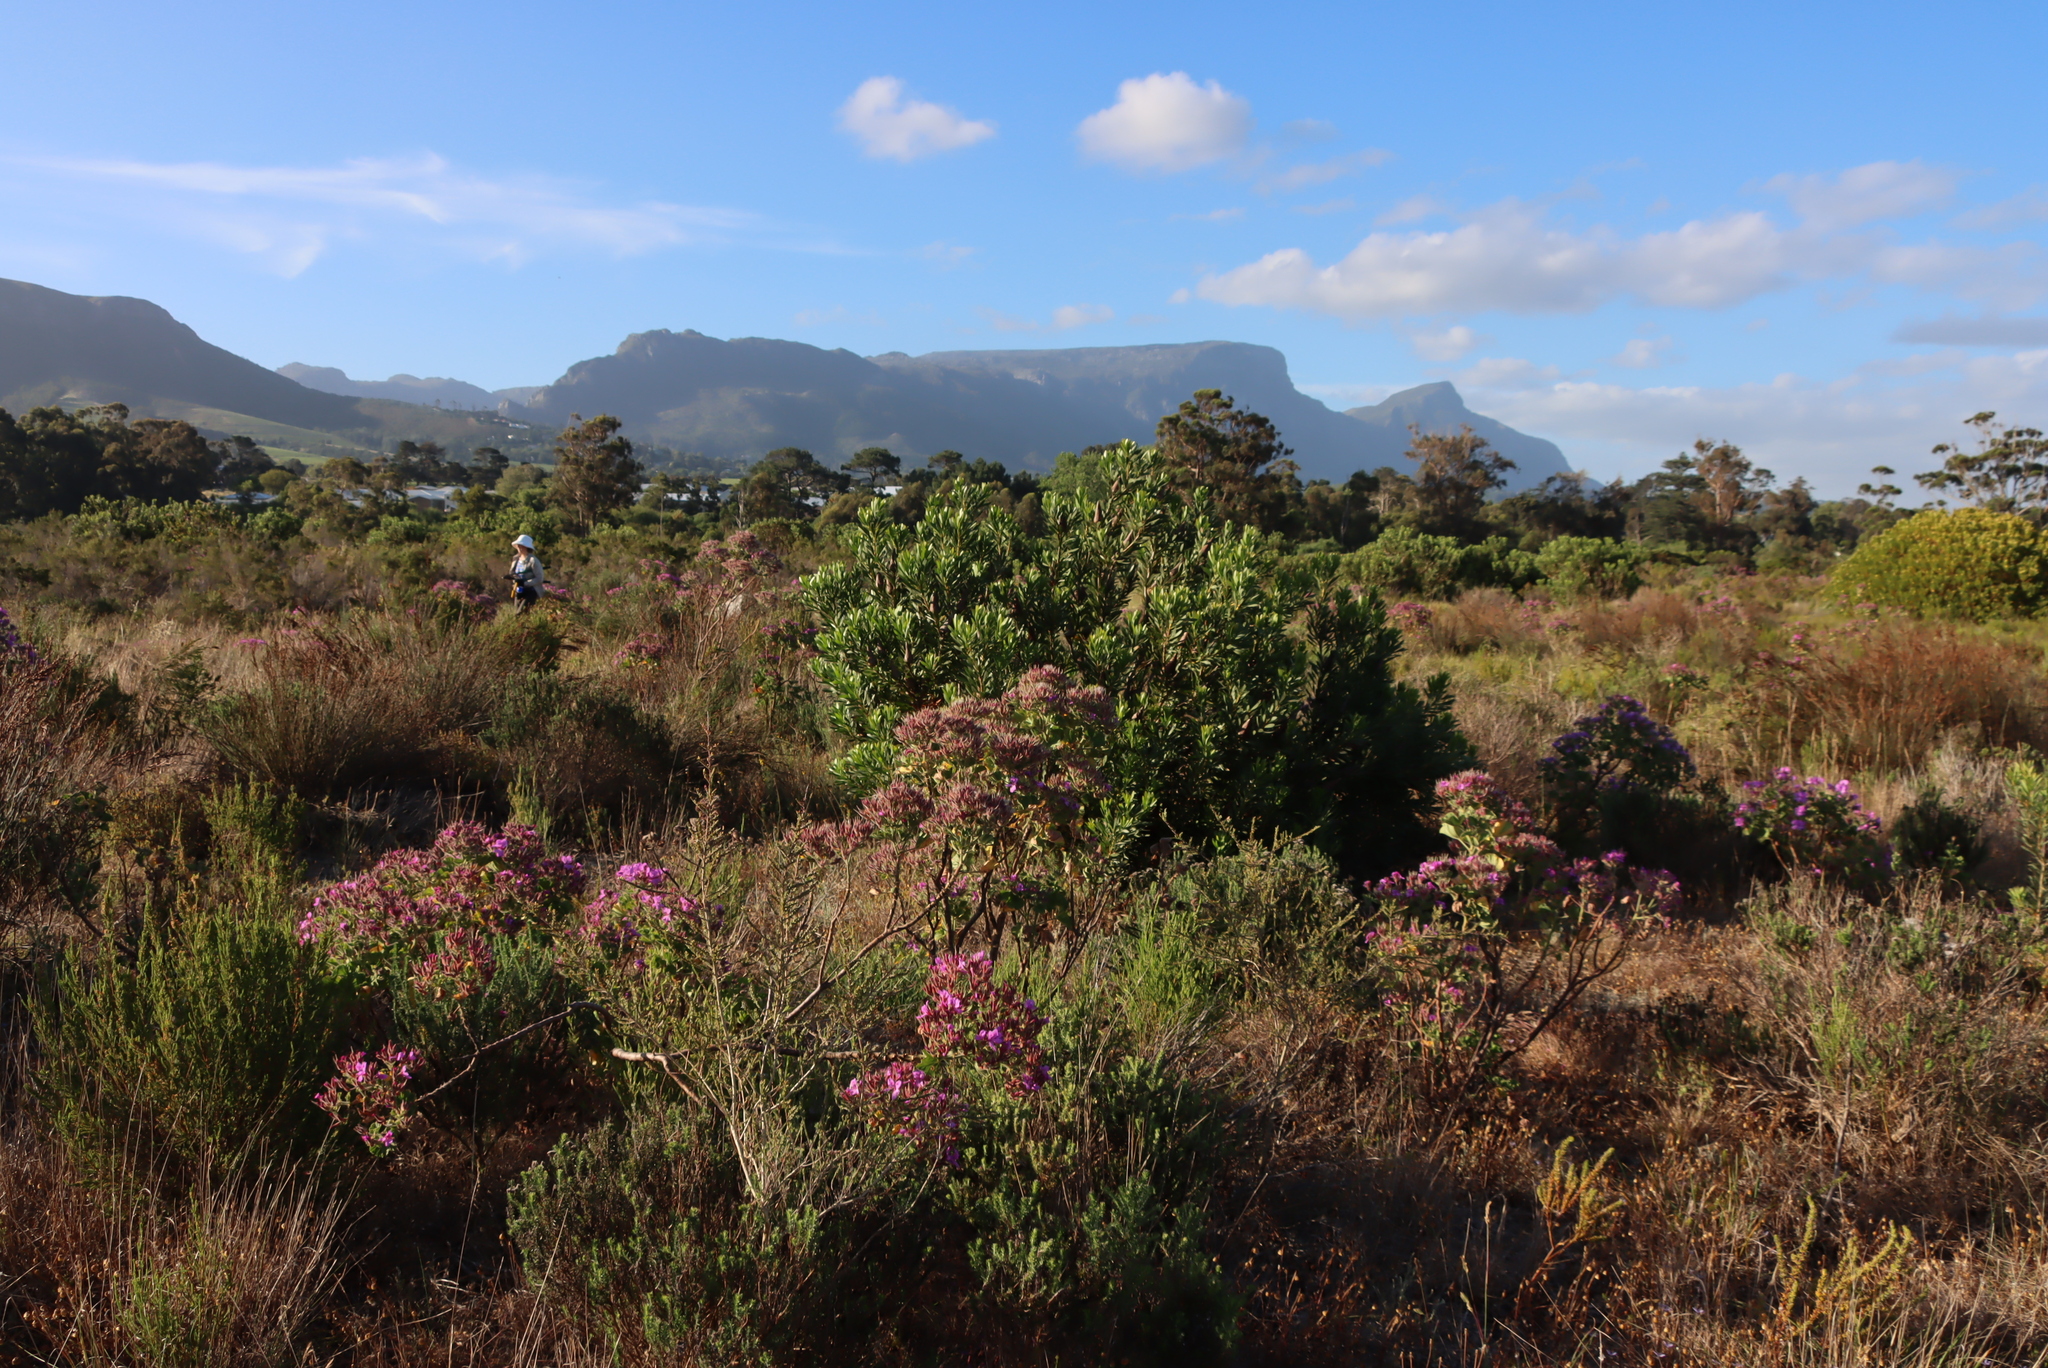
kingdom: Plantae
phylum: Tracheophyta
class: Magnoliopsida
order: Proteales
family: Proteaceae
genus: Protea
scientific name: Protea repens
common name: Sugarbush
